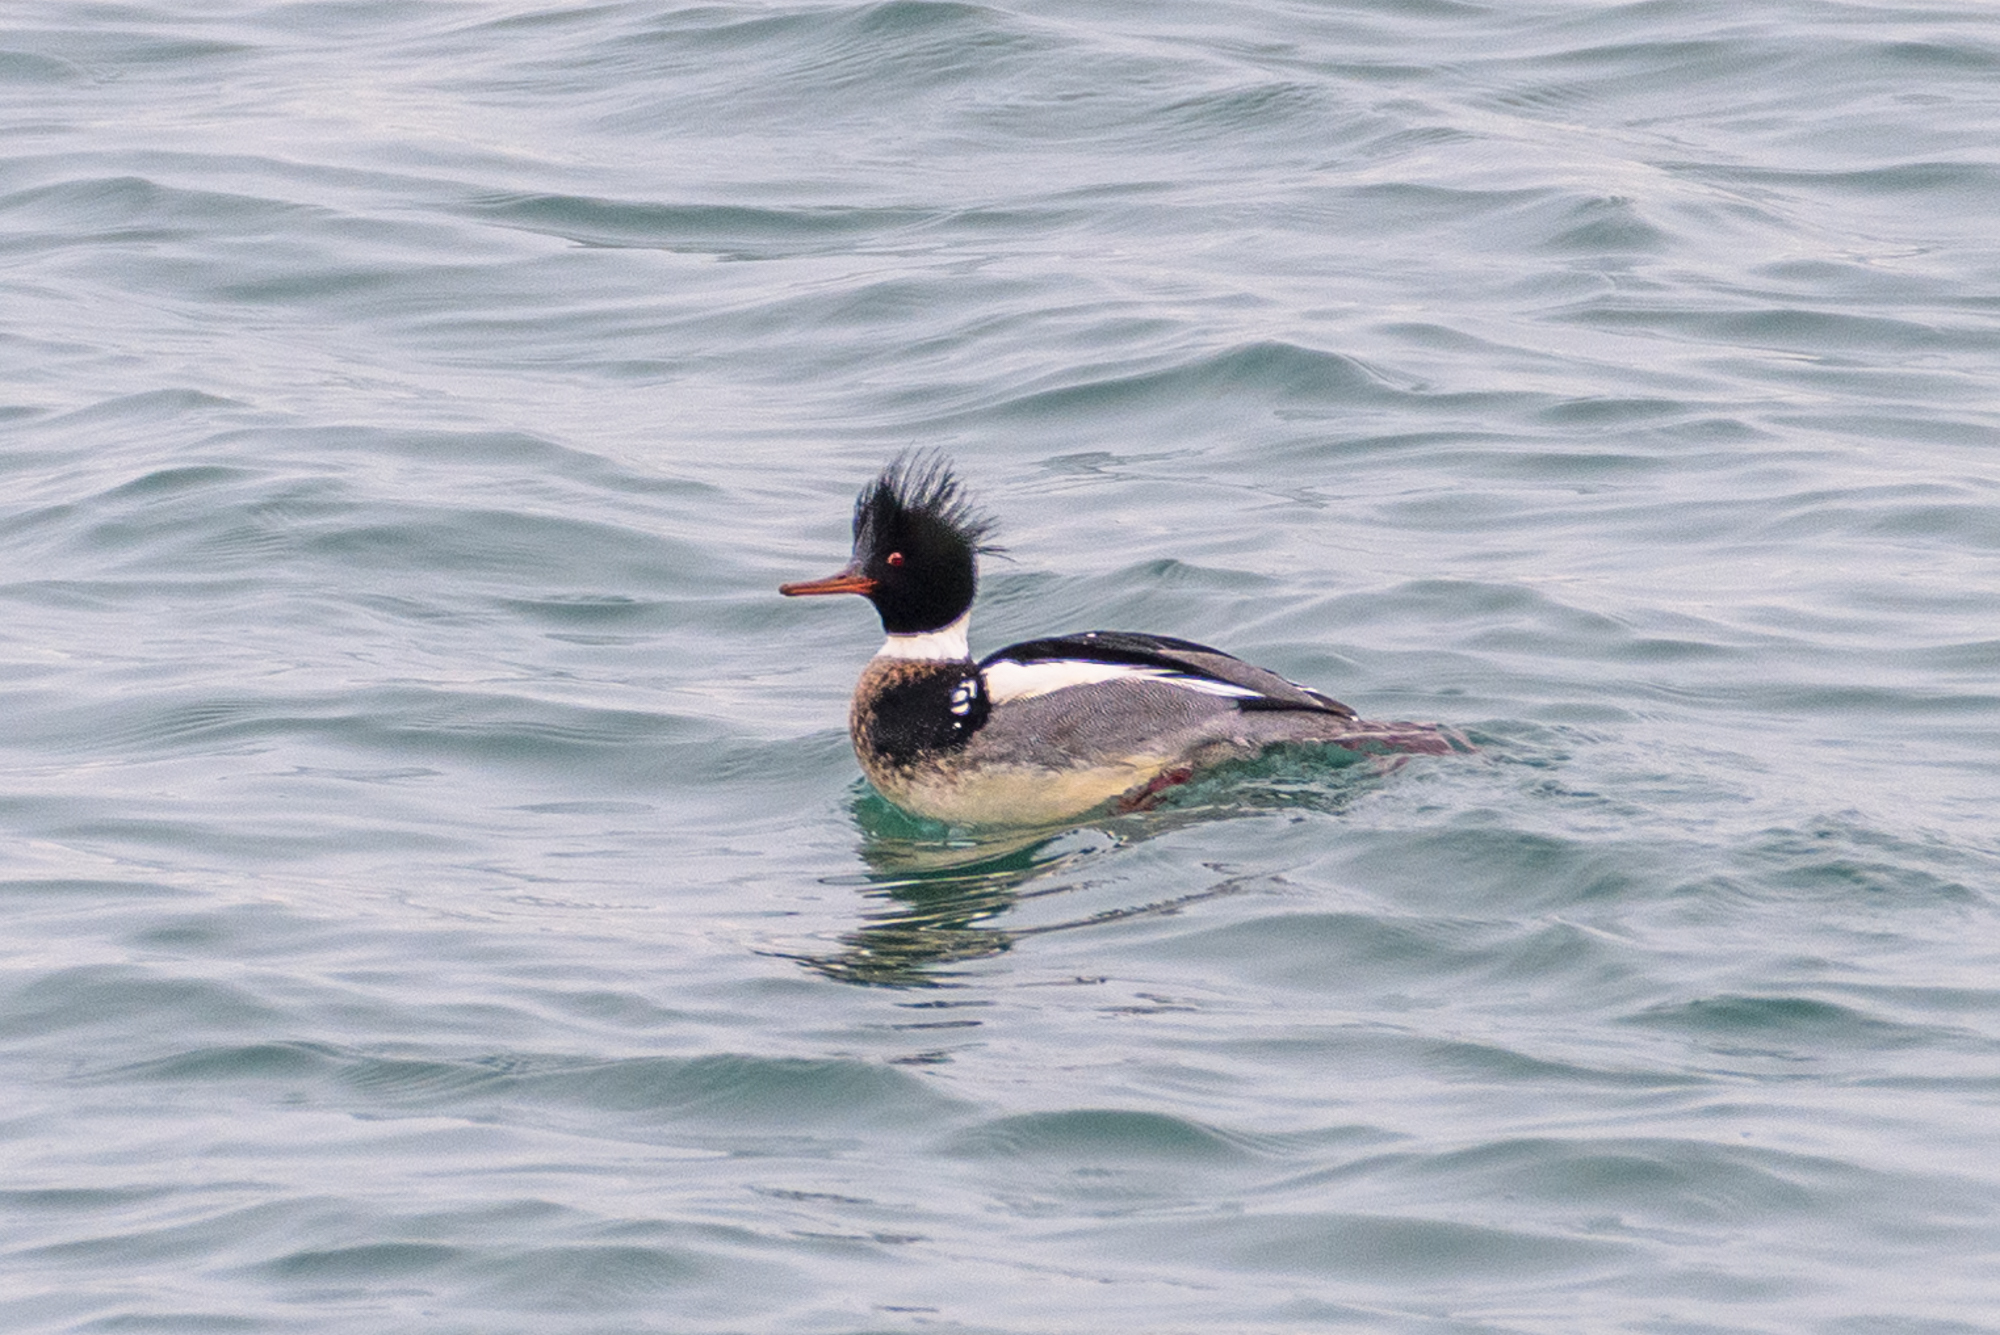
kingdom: Animalia
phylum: Chordata
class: Aves
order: Anseriformes
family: Anatidae
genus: Mergus
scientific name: Mergus serrator
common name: Red-breasted merganser
